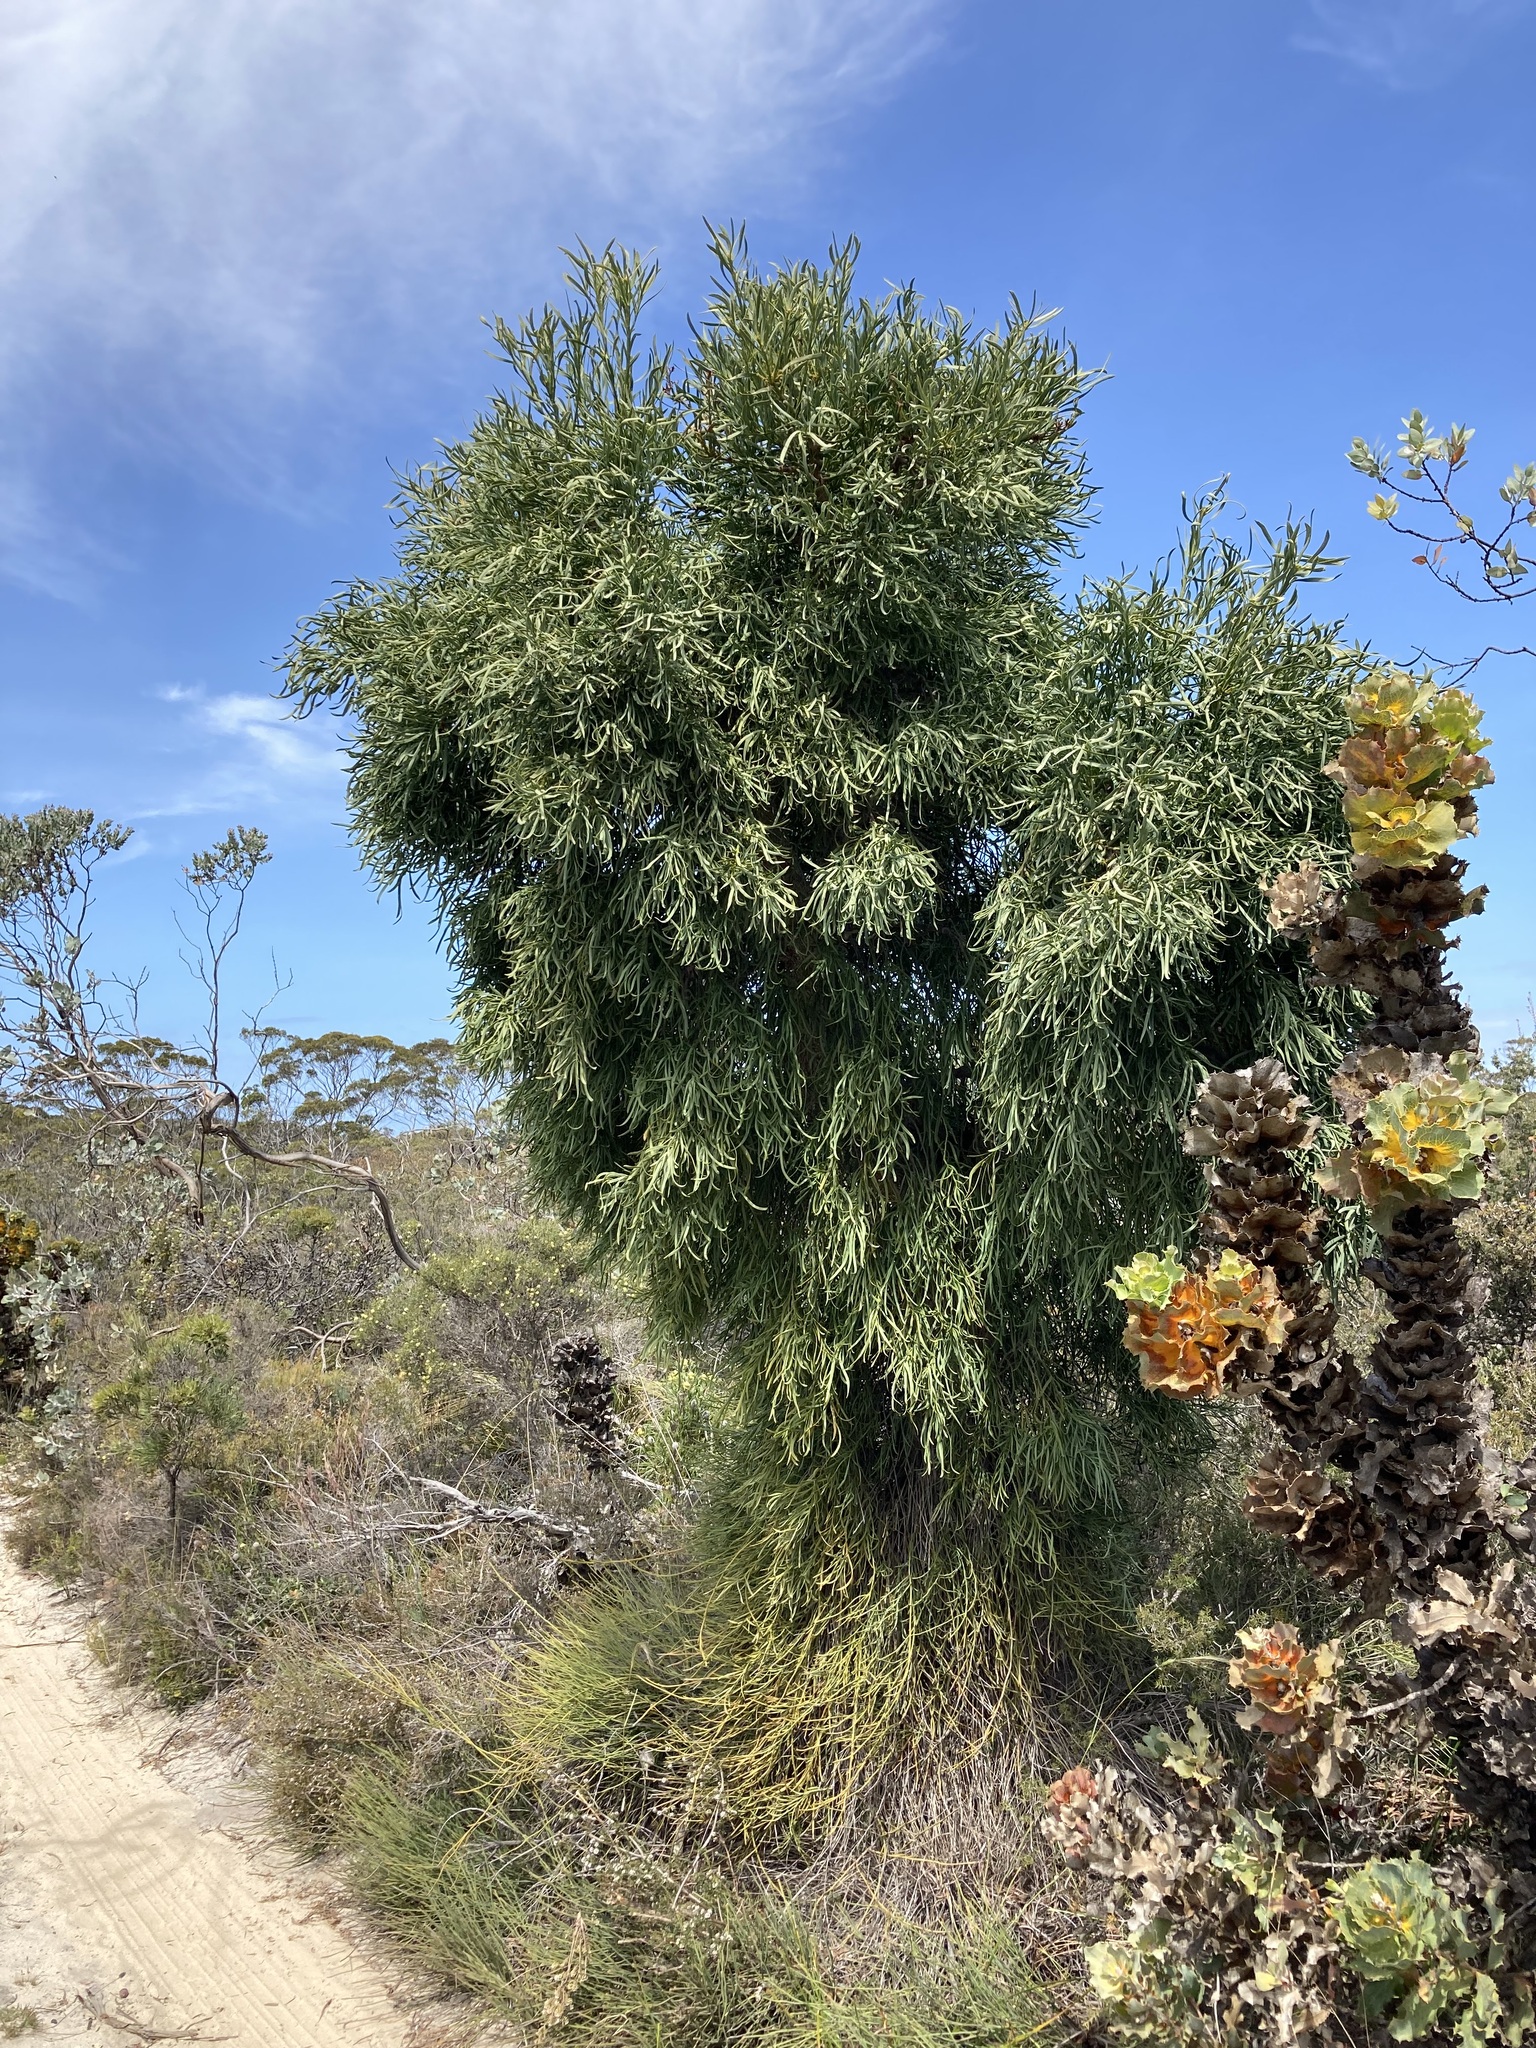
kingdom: Plantae
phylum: Tracheophyta
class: Magnoliopsida
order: Santalales
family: Loranthaceae
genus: Nuytsia
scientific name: Nuytsia floribunda
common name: Western australian christmastree
